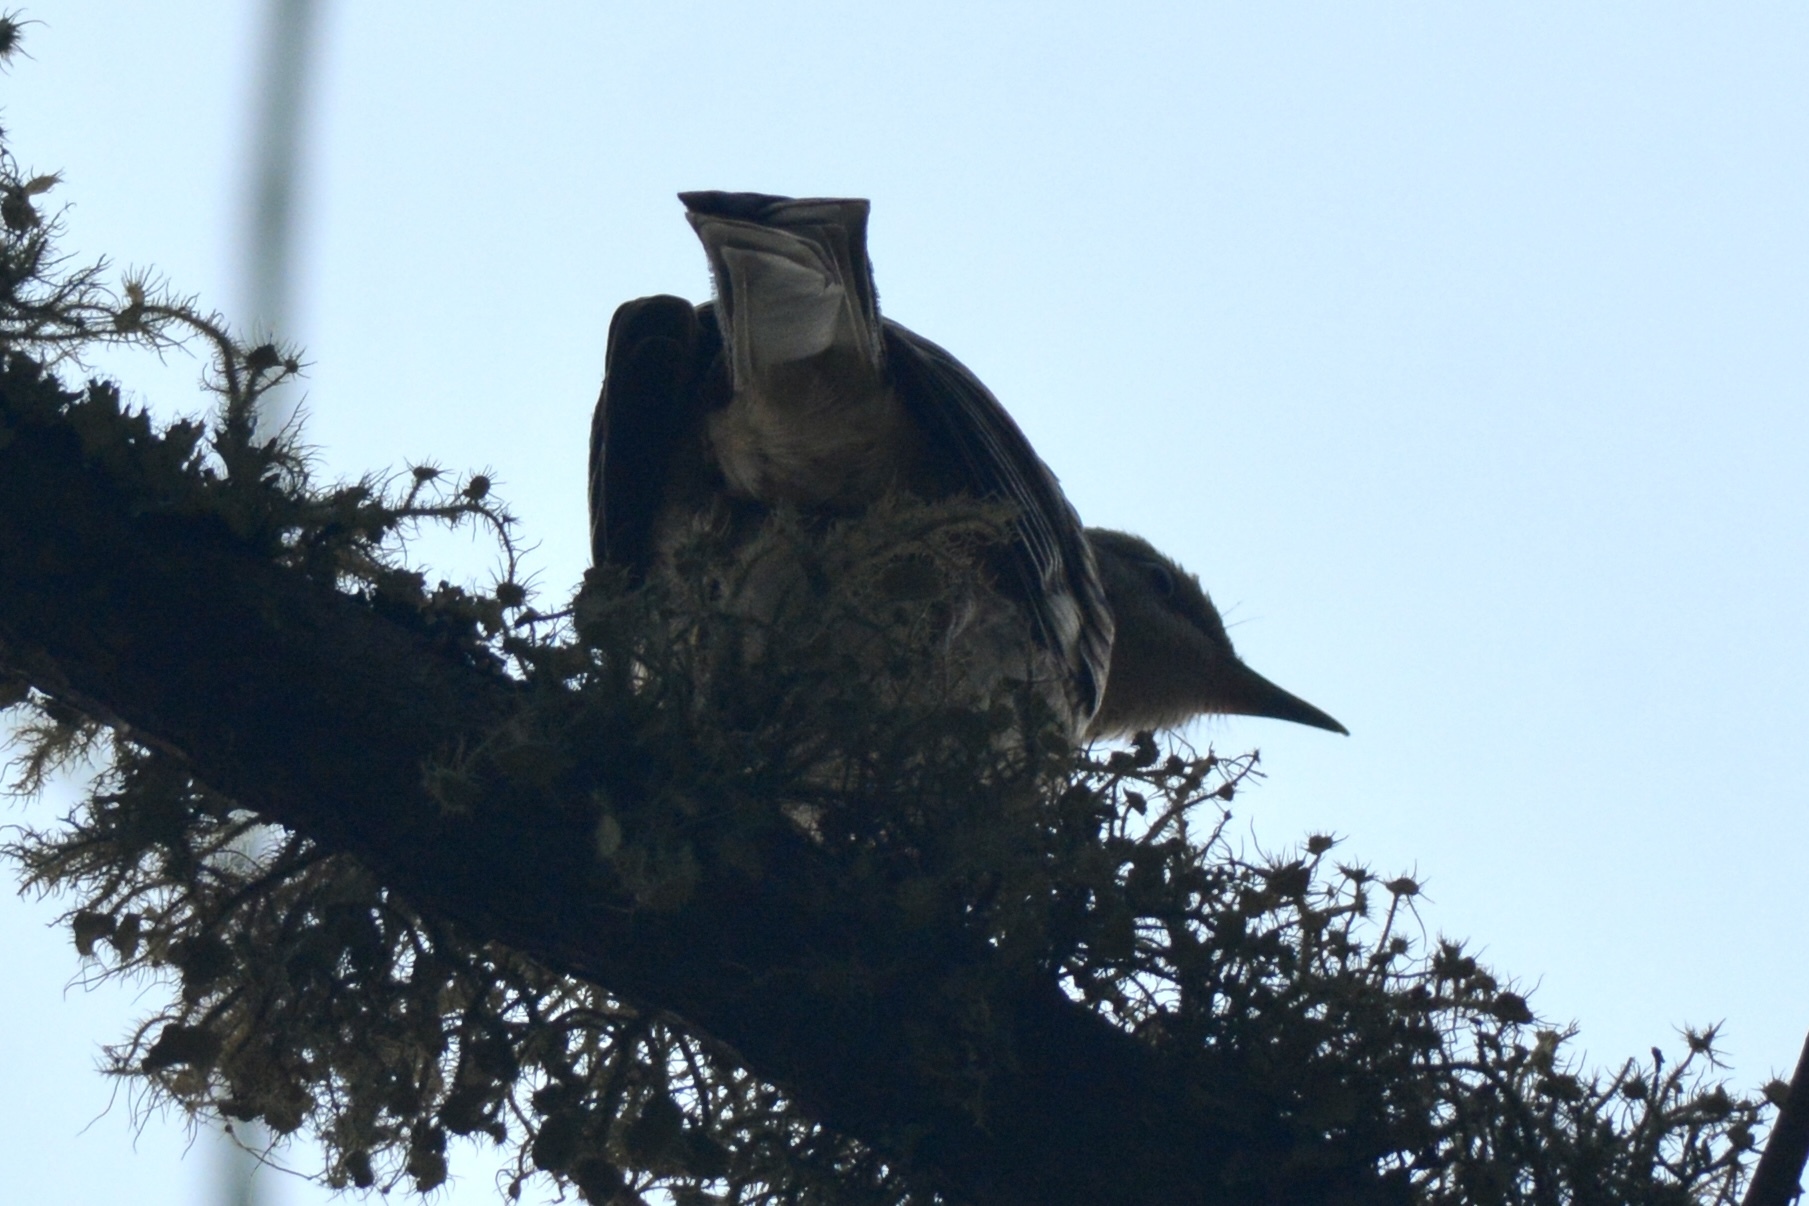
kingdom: Animalia
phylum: Chordata
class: Aves
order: Passeriformes
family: Sittidae
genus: Sitta
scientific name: Sitta pusilla
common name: Brown-headed nuthatch
